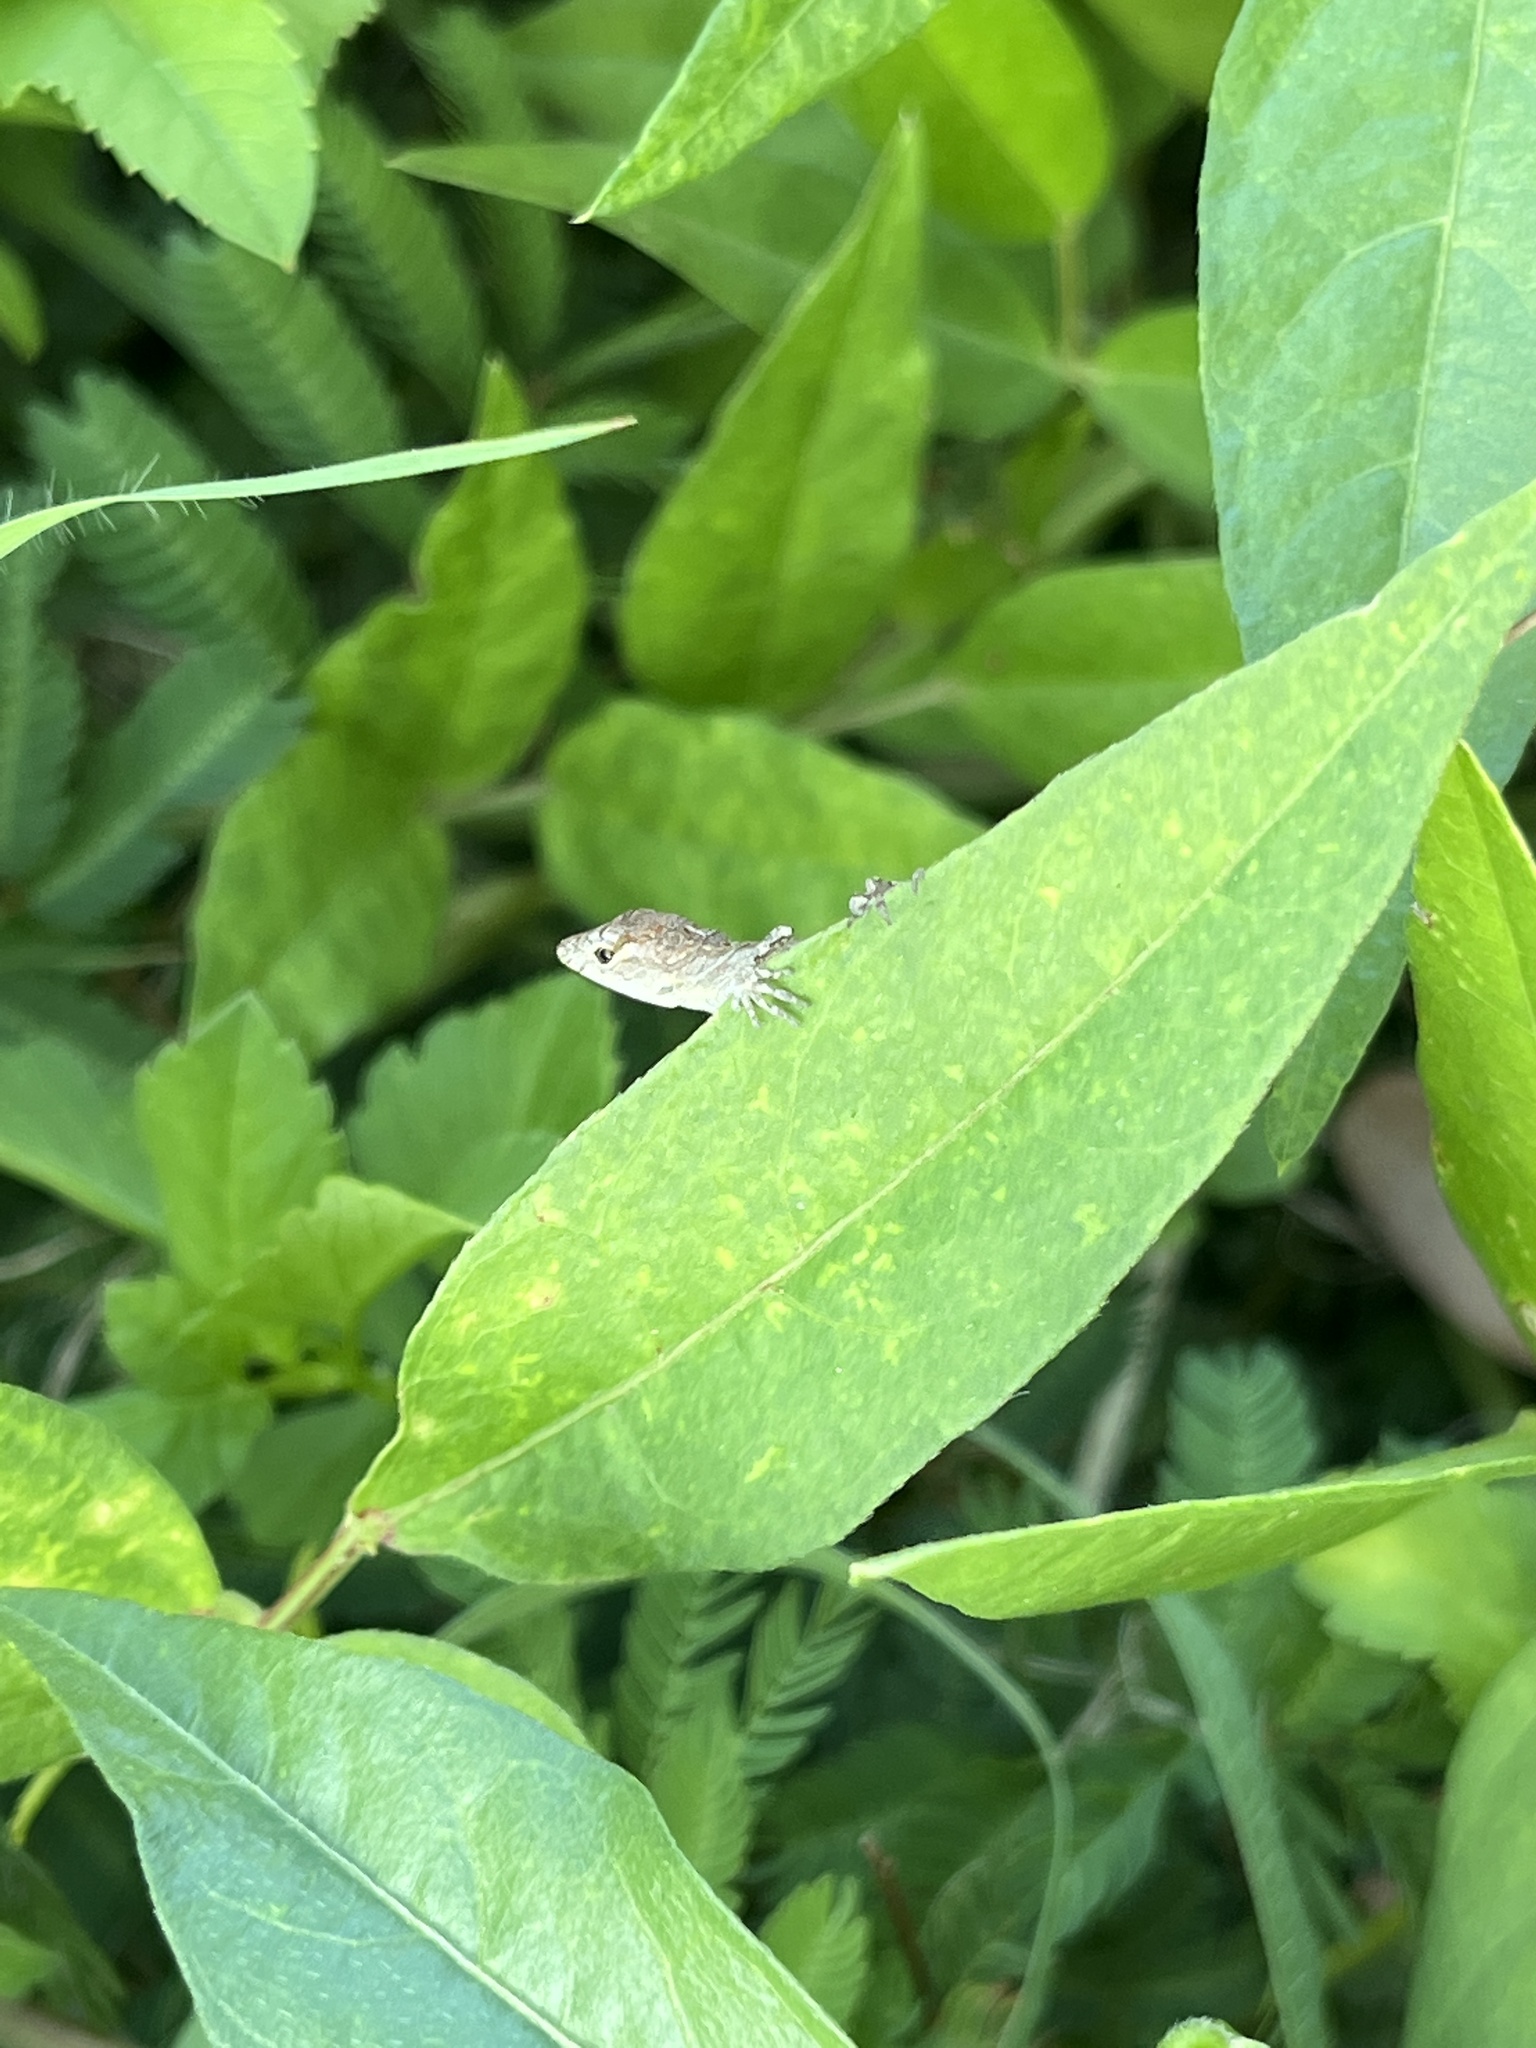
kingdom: Animalia
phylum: Chordata
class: Squamata
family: Dactyloidae
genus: Anolis
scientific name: Anolis sagrei
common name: Brown anole
